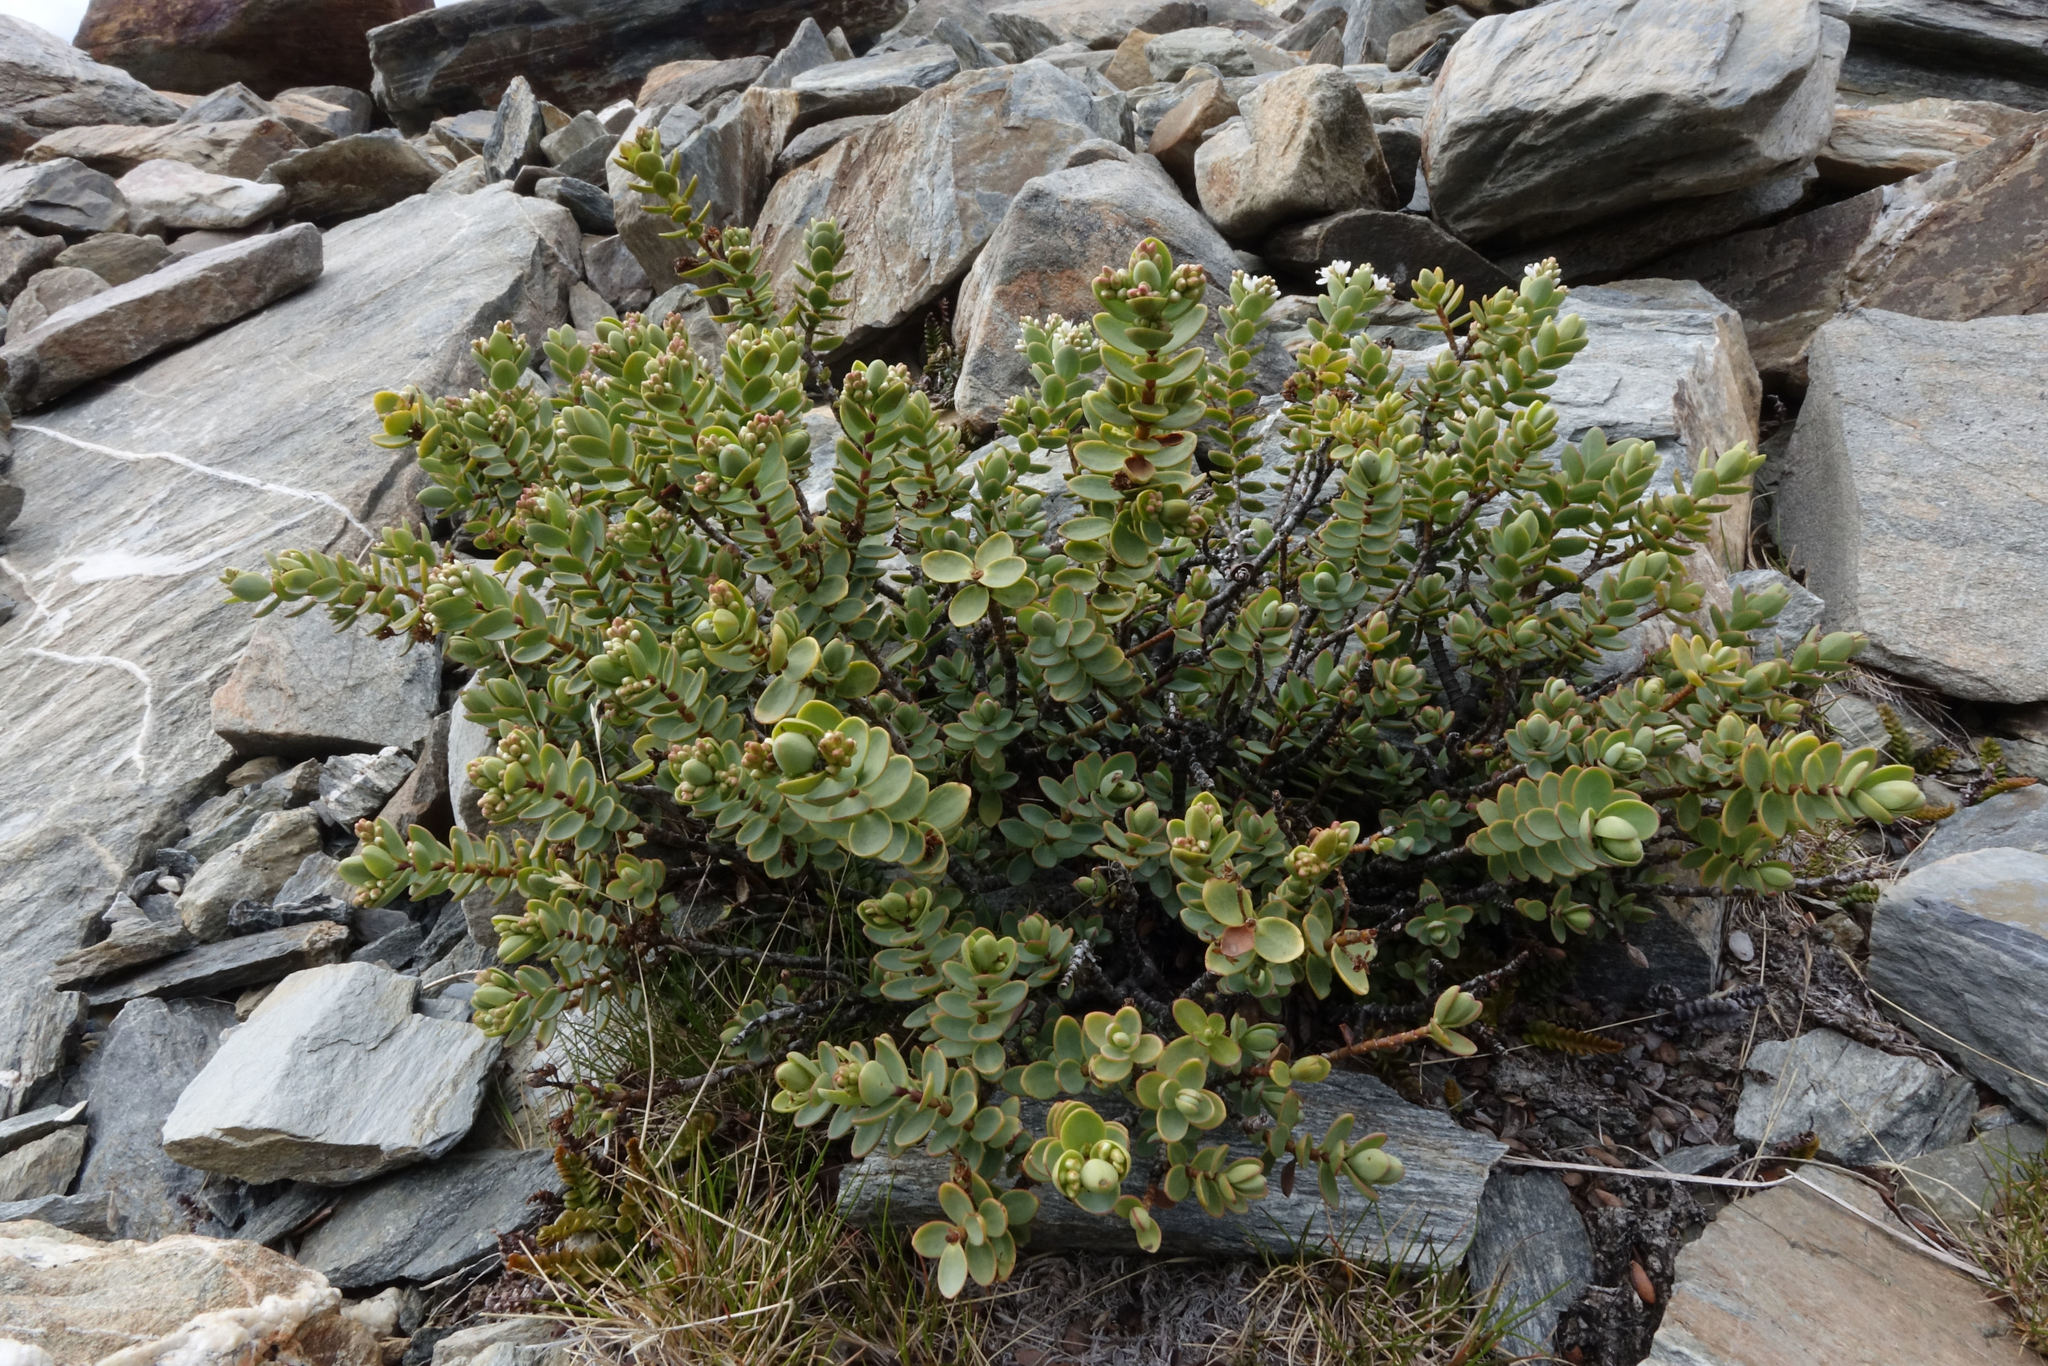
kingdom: Plantae
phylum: Tracheophyta
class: Magnoliopsida
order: Lamiales
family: Plantaginaceae
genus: Veronica
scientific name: Veronica pinguifolia
